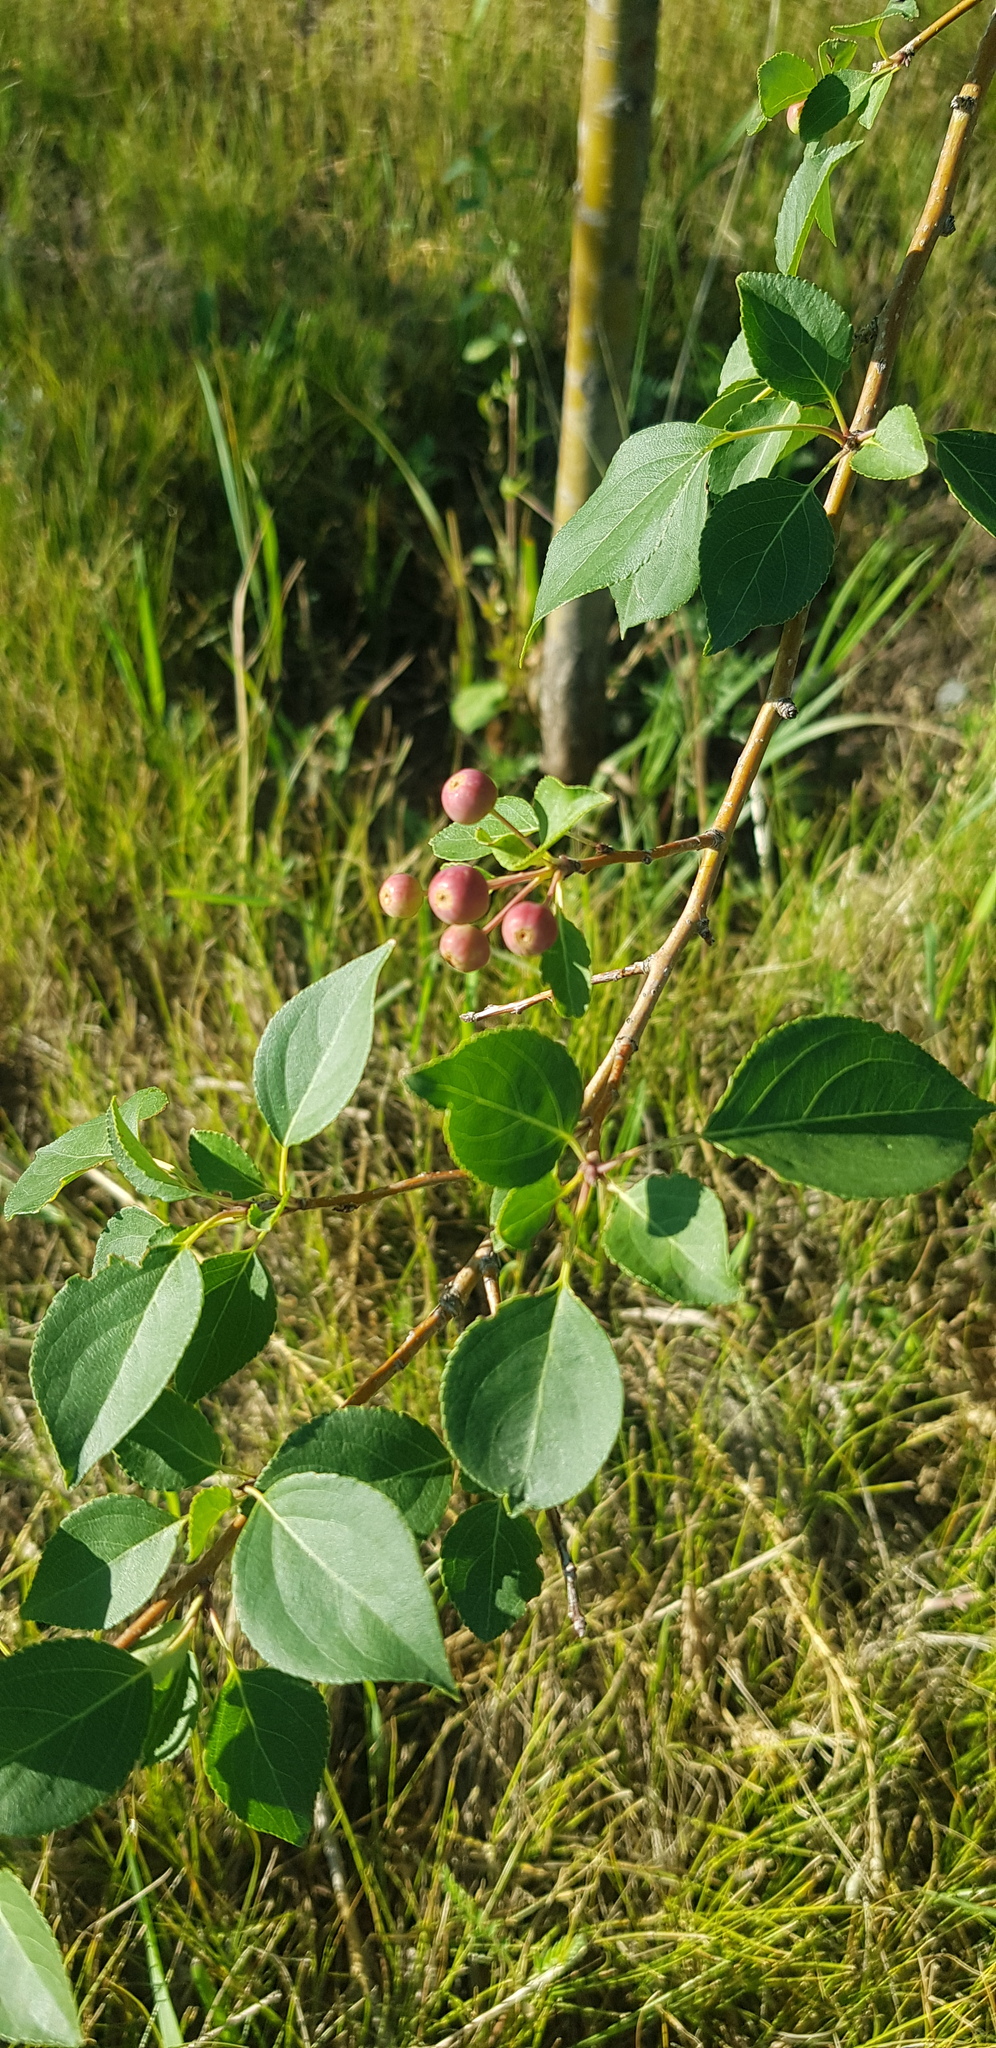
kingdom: Plantae
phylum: Tracheophyta
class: Magnoliopsida
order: Rosales
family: Rosaceae
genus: Malus
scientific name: Malus baccata
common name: Siberian crab
